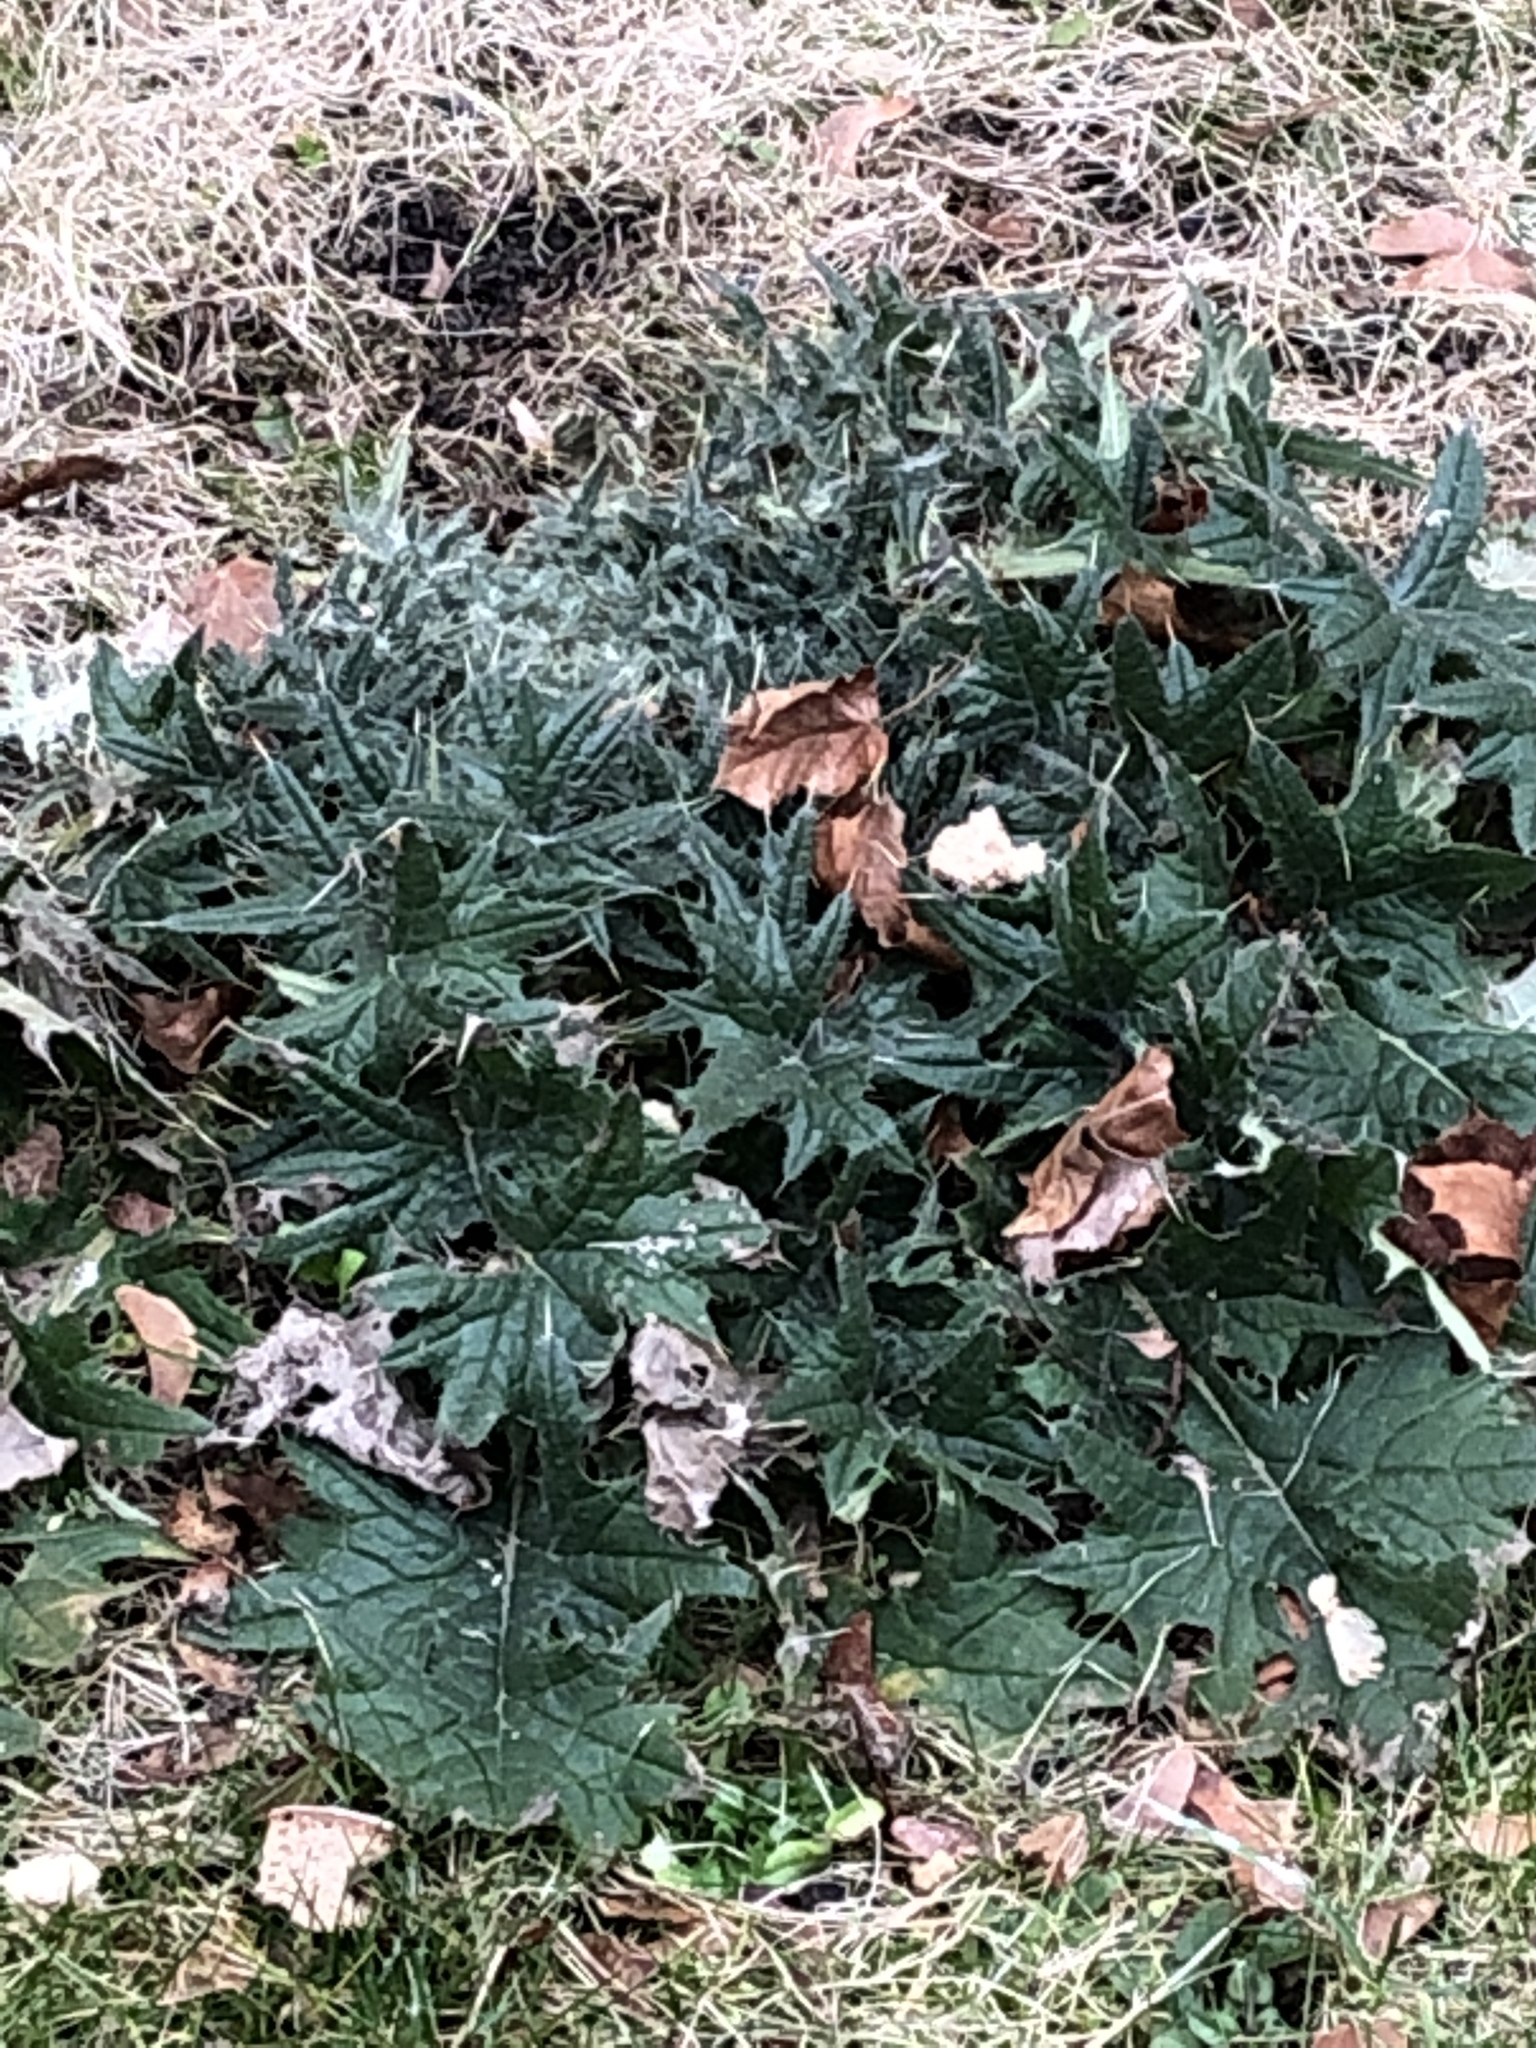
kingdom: Plantae
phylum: Tracheophyta
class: Magnoliopsida
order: Asterales
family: Asteraceae
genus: Cirsium
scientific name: Cirsium vulgare
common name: Bull thistle
